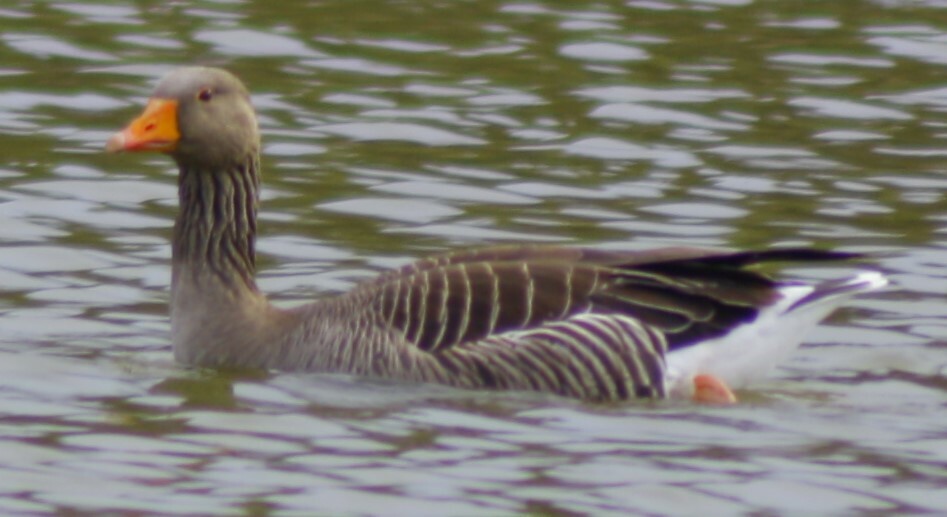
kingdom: Animalia
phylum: Chordata
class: Aves
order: Anseriformes
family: Anatidae
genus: Anser
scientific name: Anser anser
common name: Greylag goose
